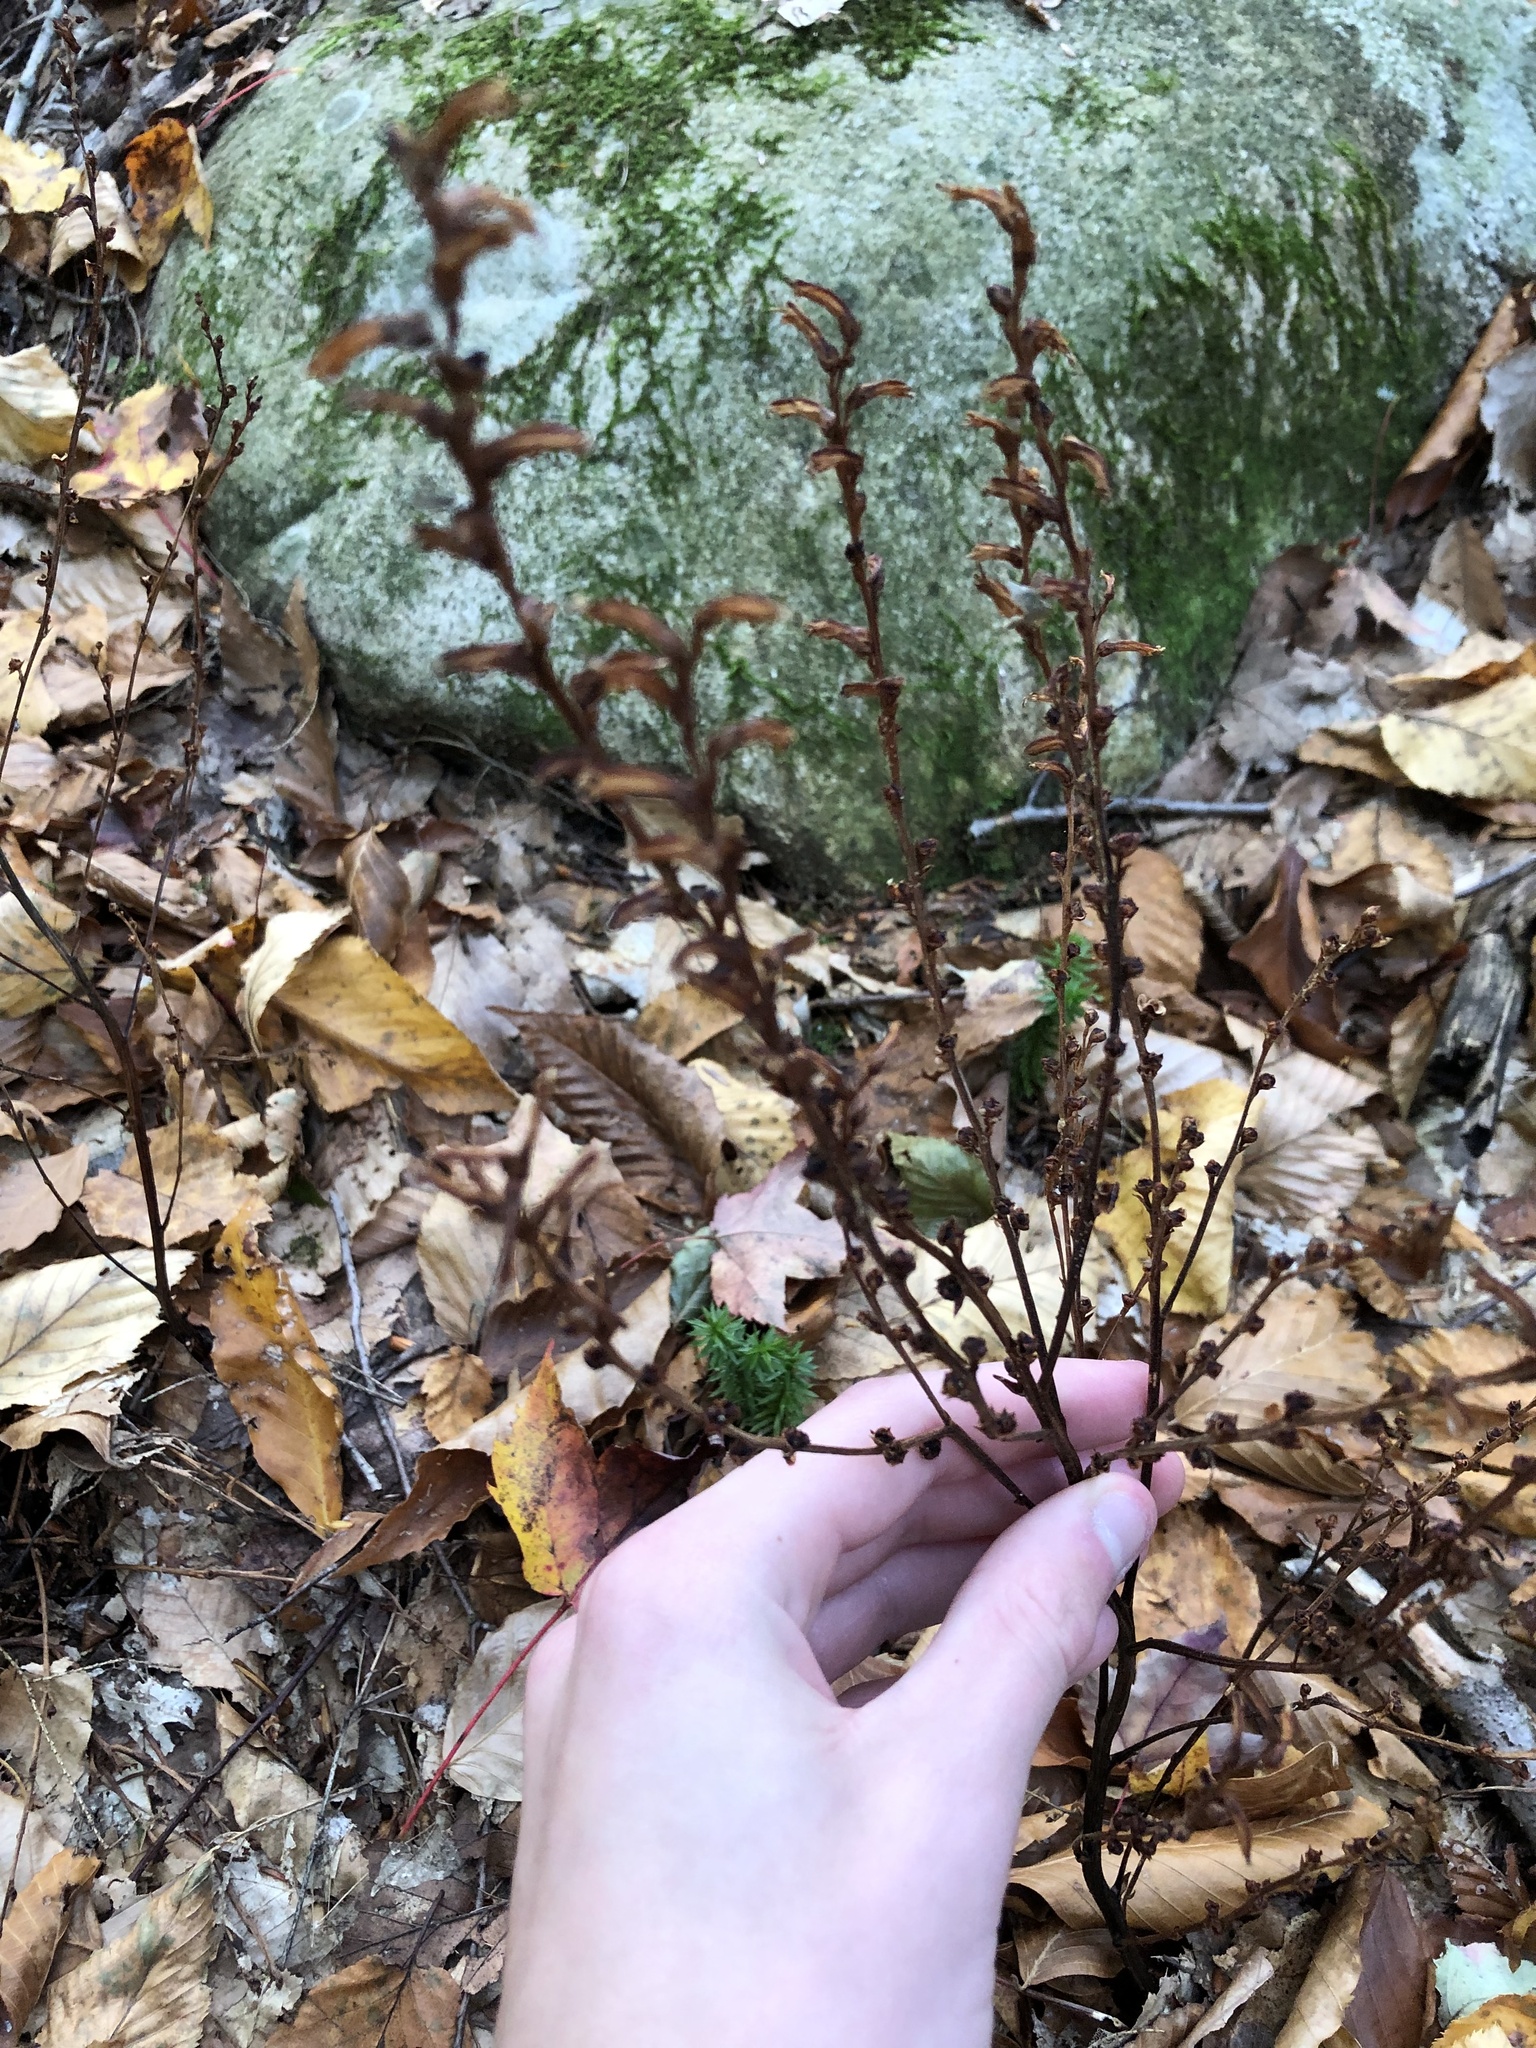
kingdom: Plantae
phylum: Tracheophyta
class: Magnoliopsida
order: Lamiales
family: Orobanchaceae
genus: Epifagus
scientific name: Epifagus virginiana
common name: Beechdrops
